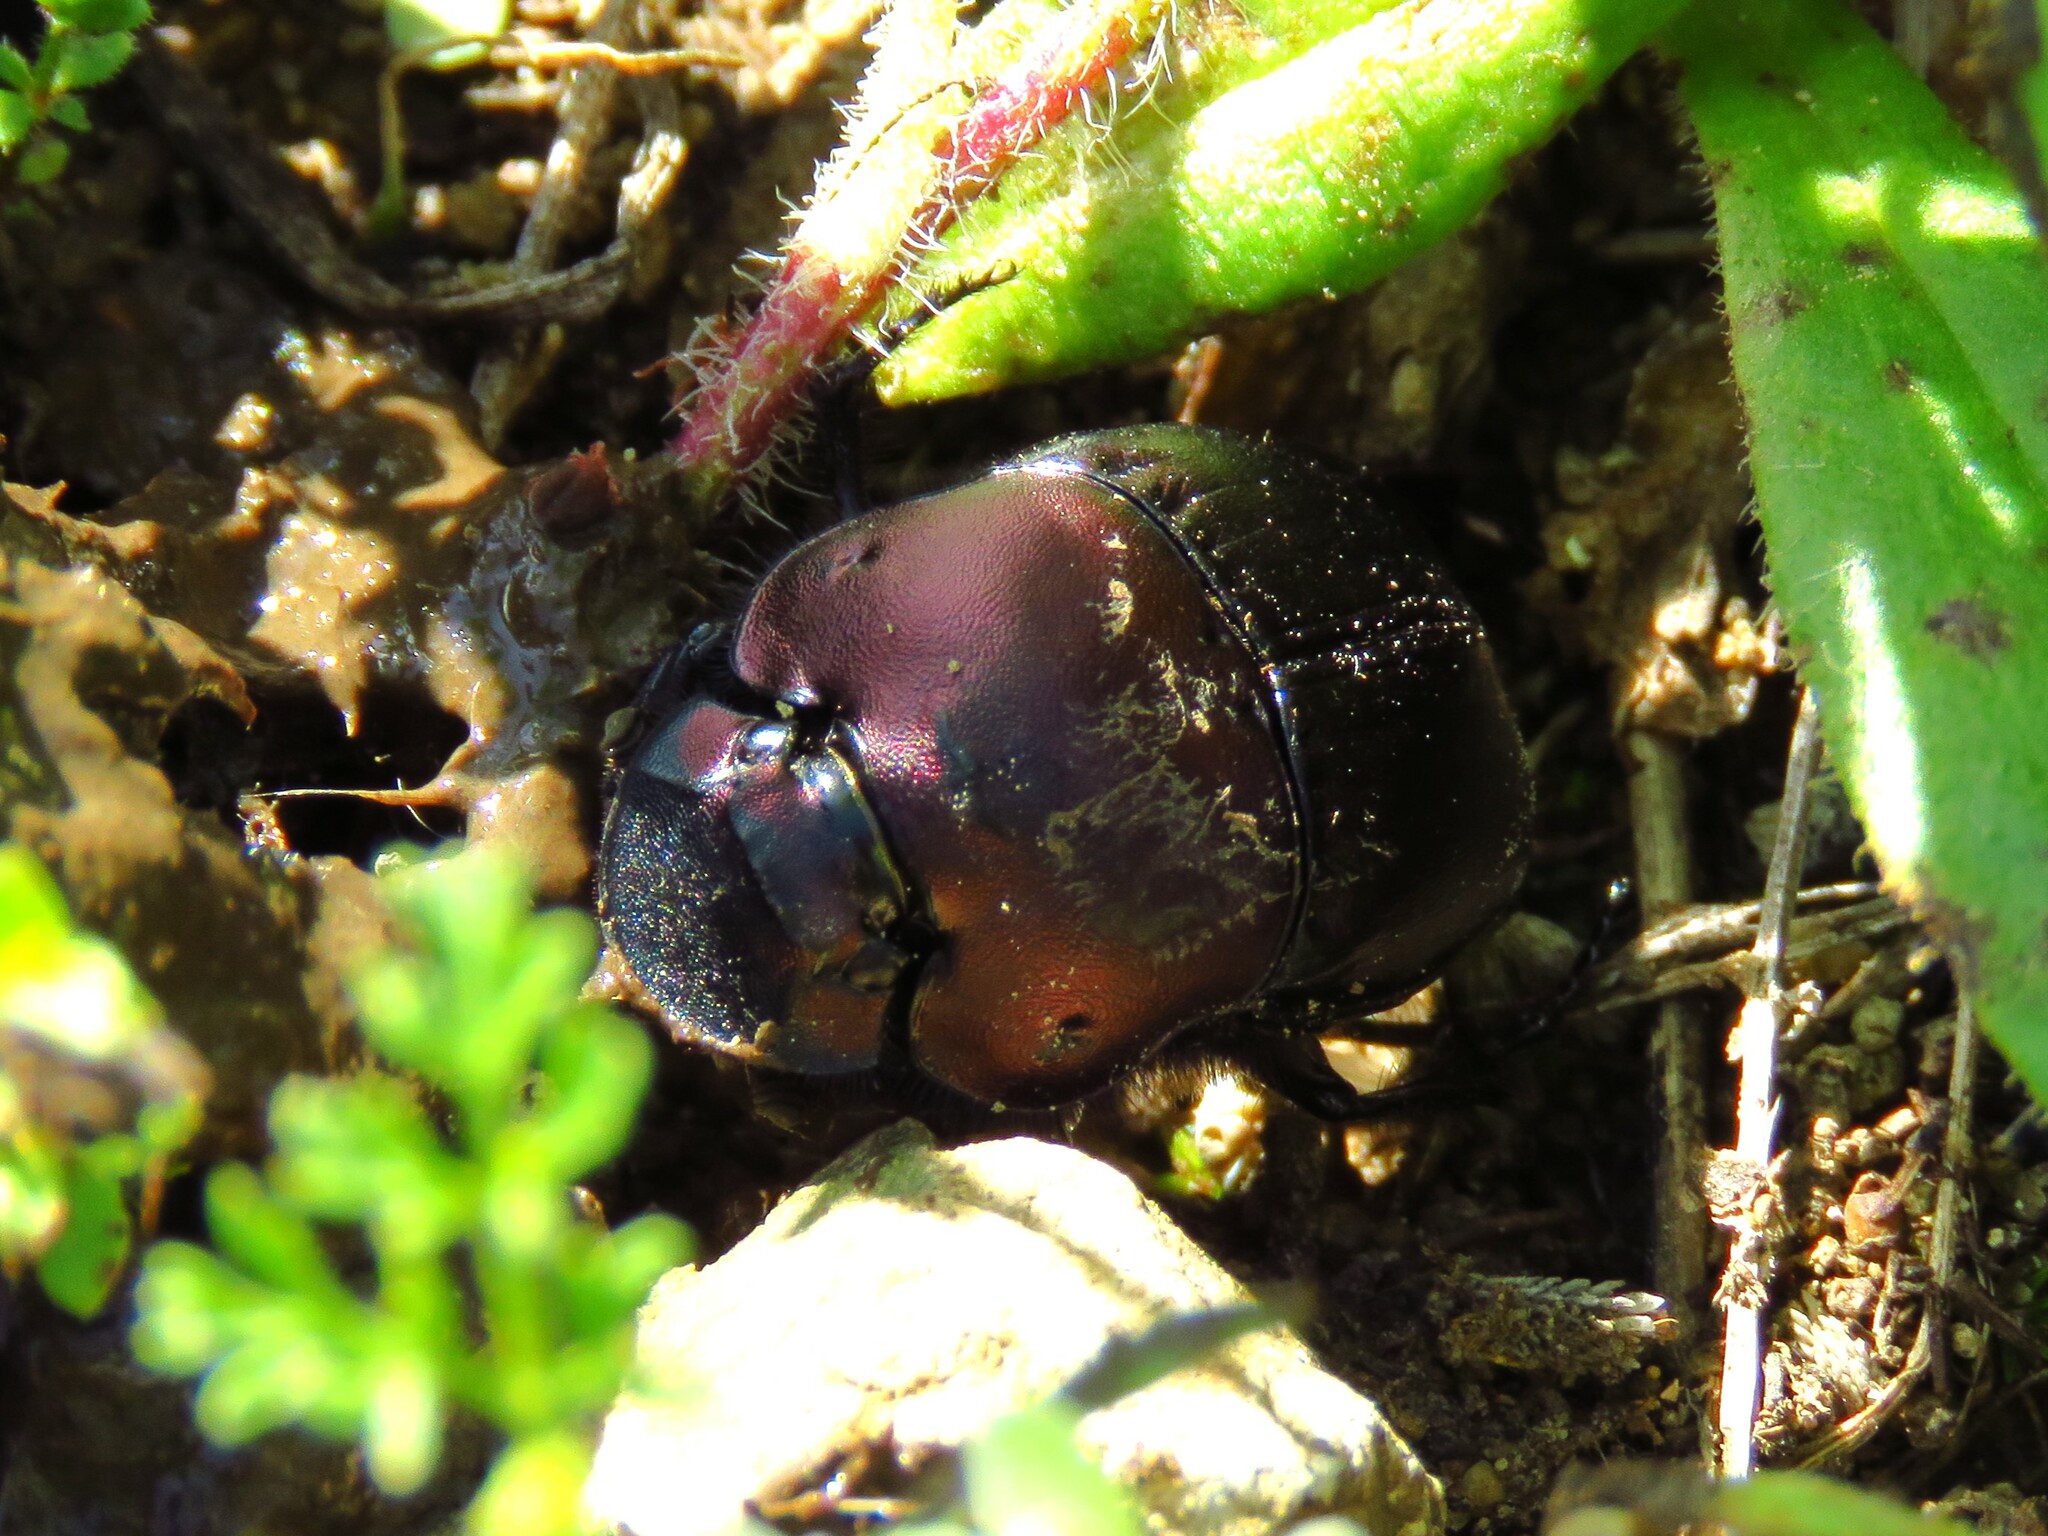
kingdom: Animalia
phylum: Arthropoda
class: Insecta
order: Coleoptera
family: Scarabaeidae
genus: Phanaeus
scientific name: Phanaeus texensis
